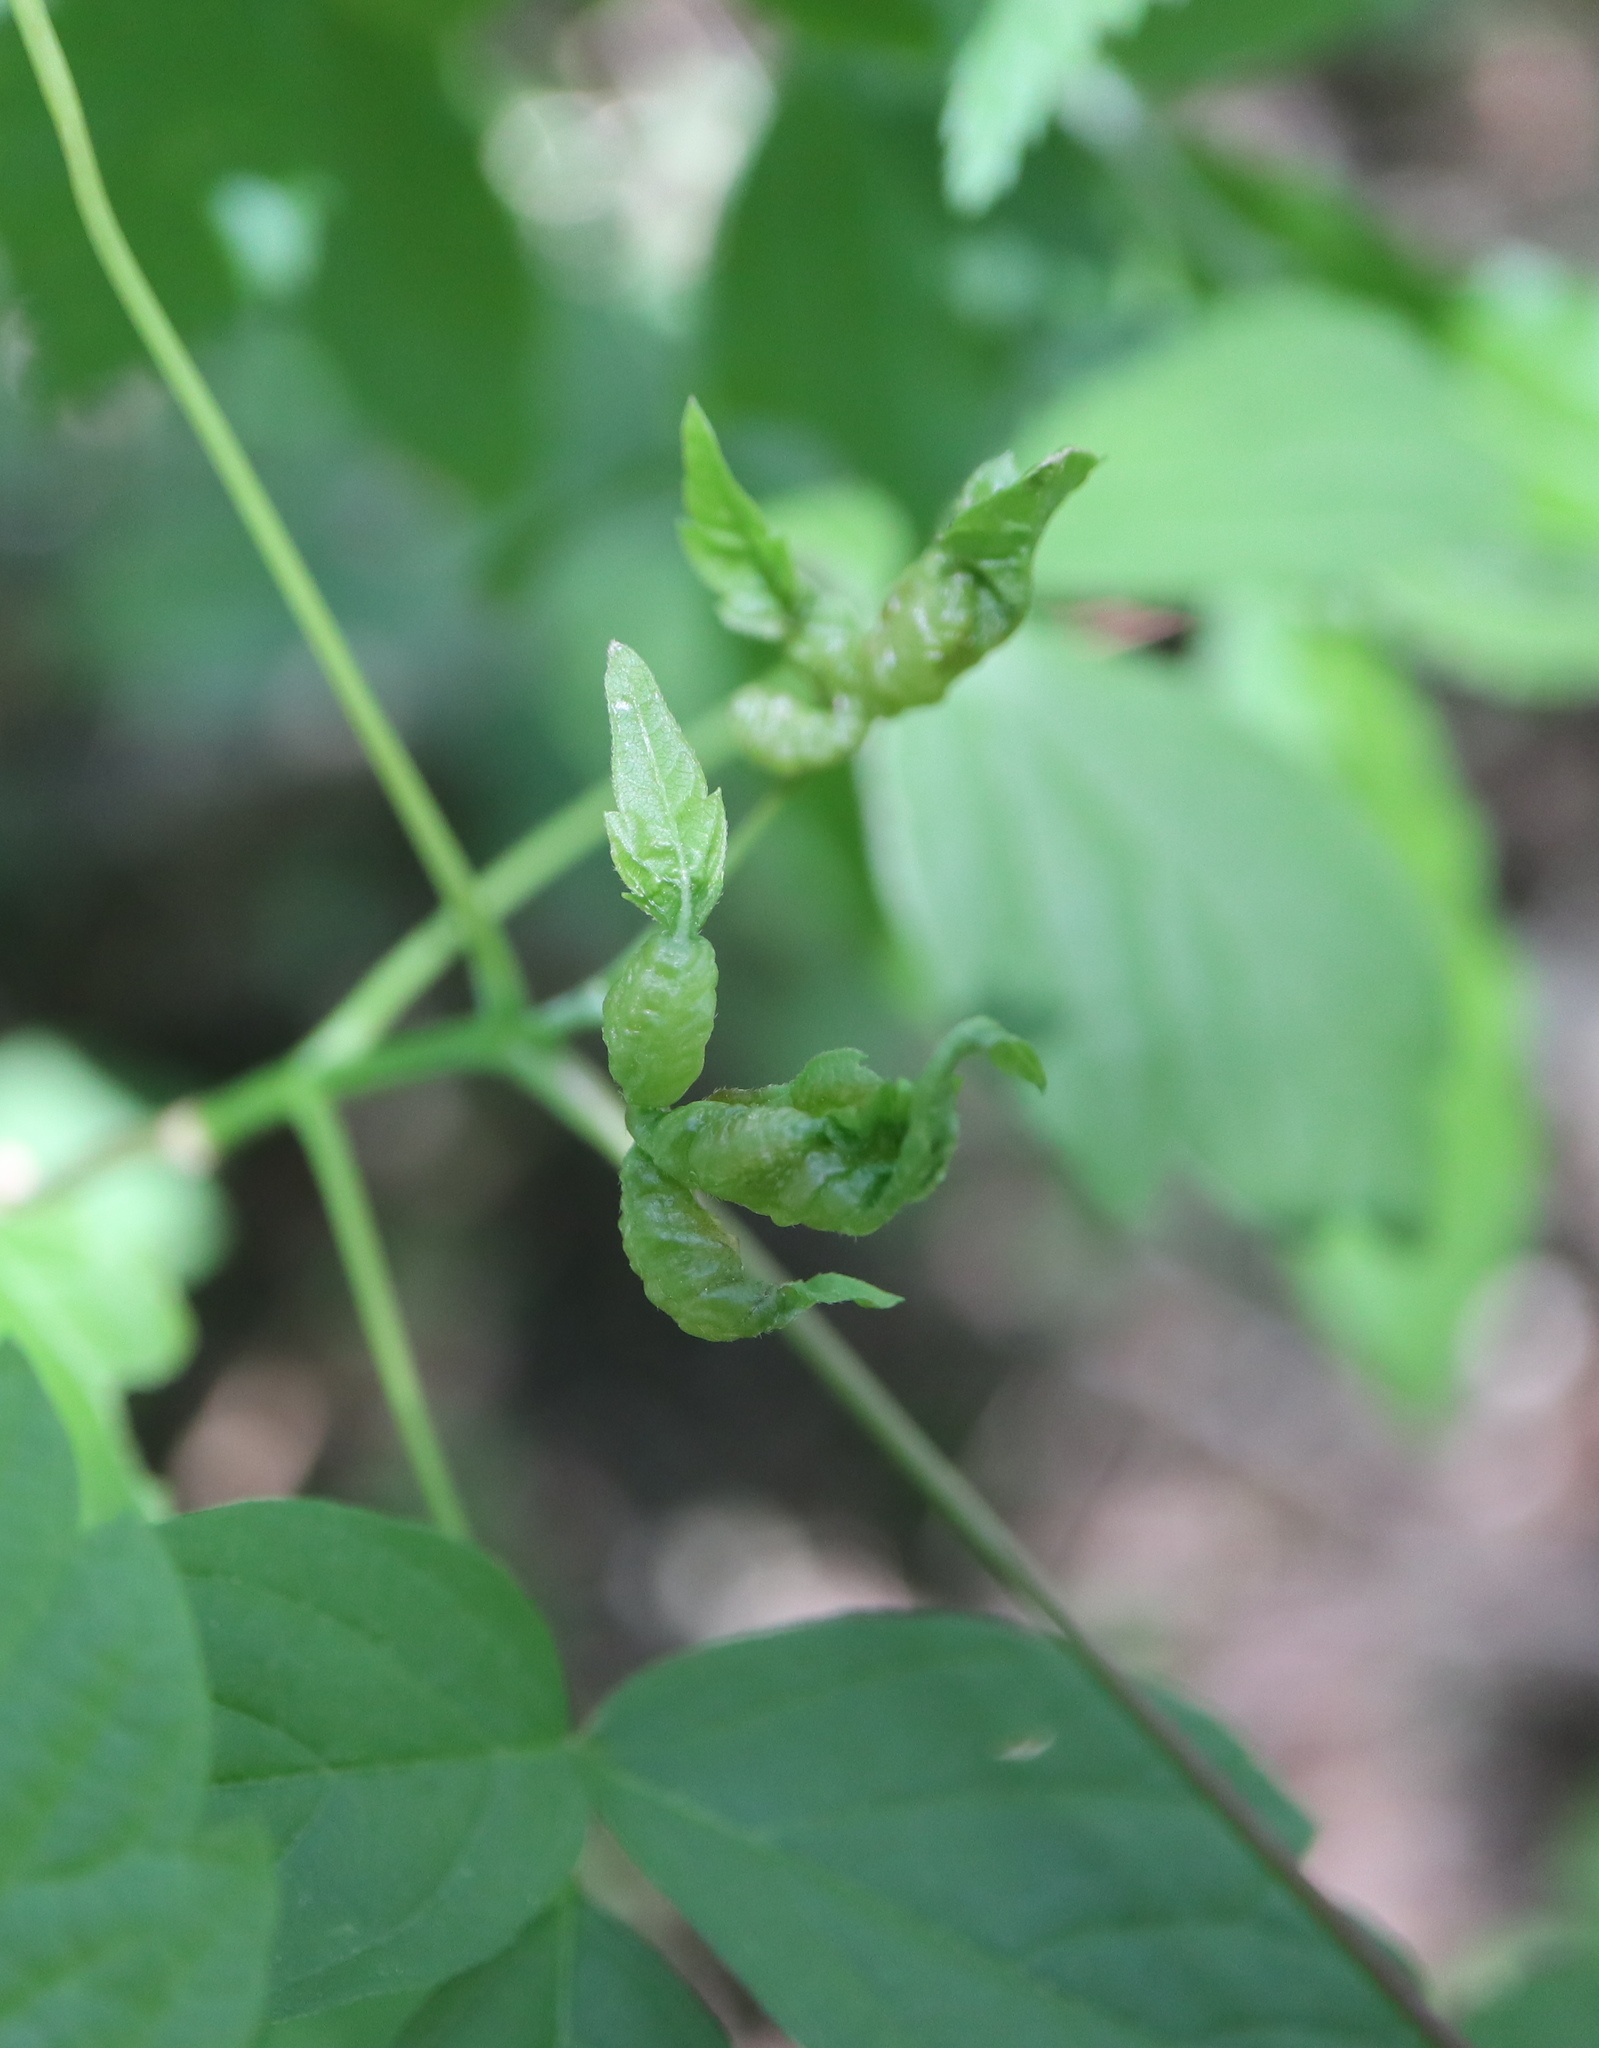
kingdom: Animalia
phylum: Arthropoda
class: Insecta
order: Diptera
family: Cecidomyiidae
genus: Contarinia
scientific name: Contarinia negundinis
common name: Boxelder budgall midge
